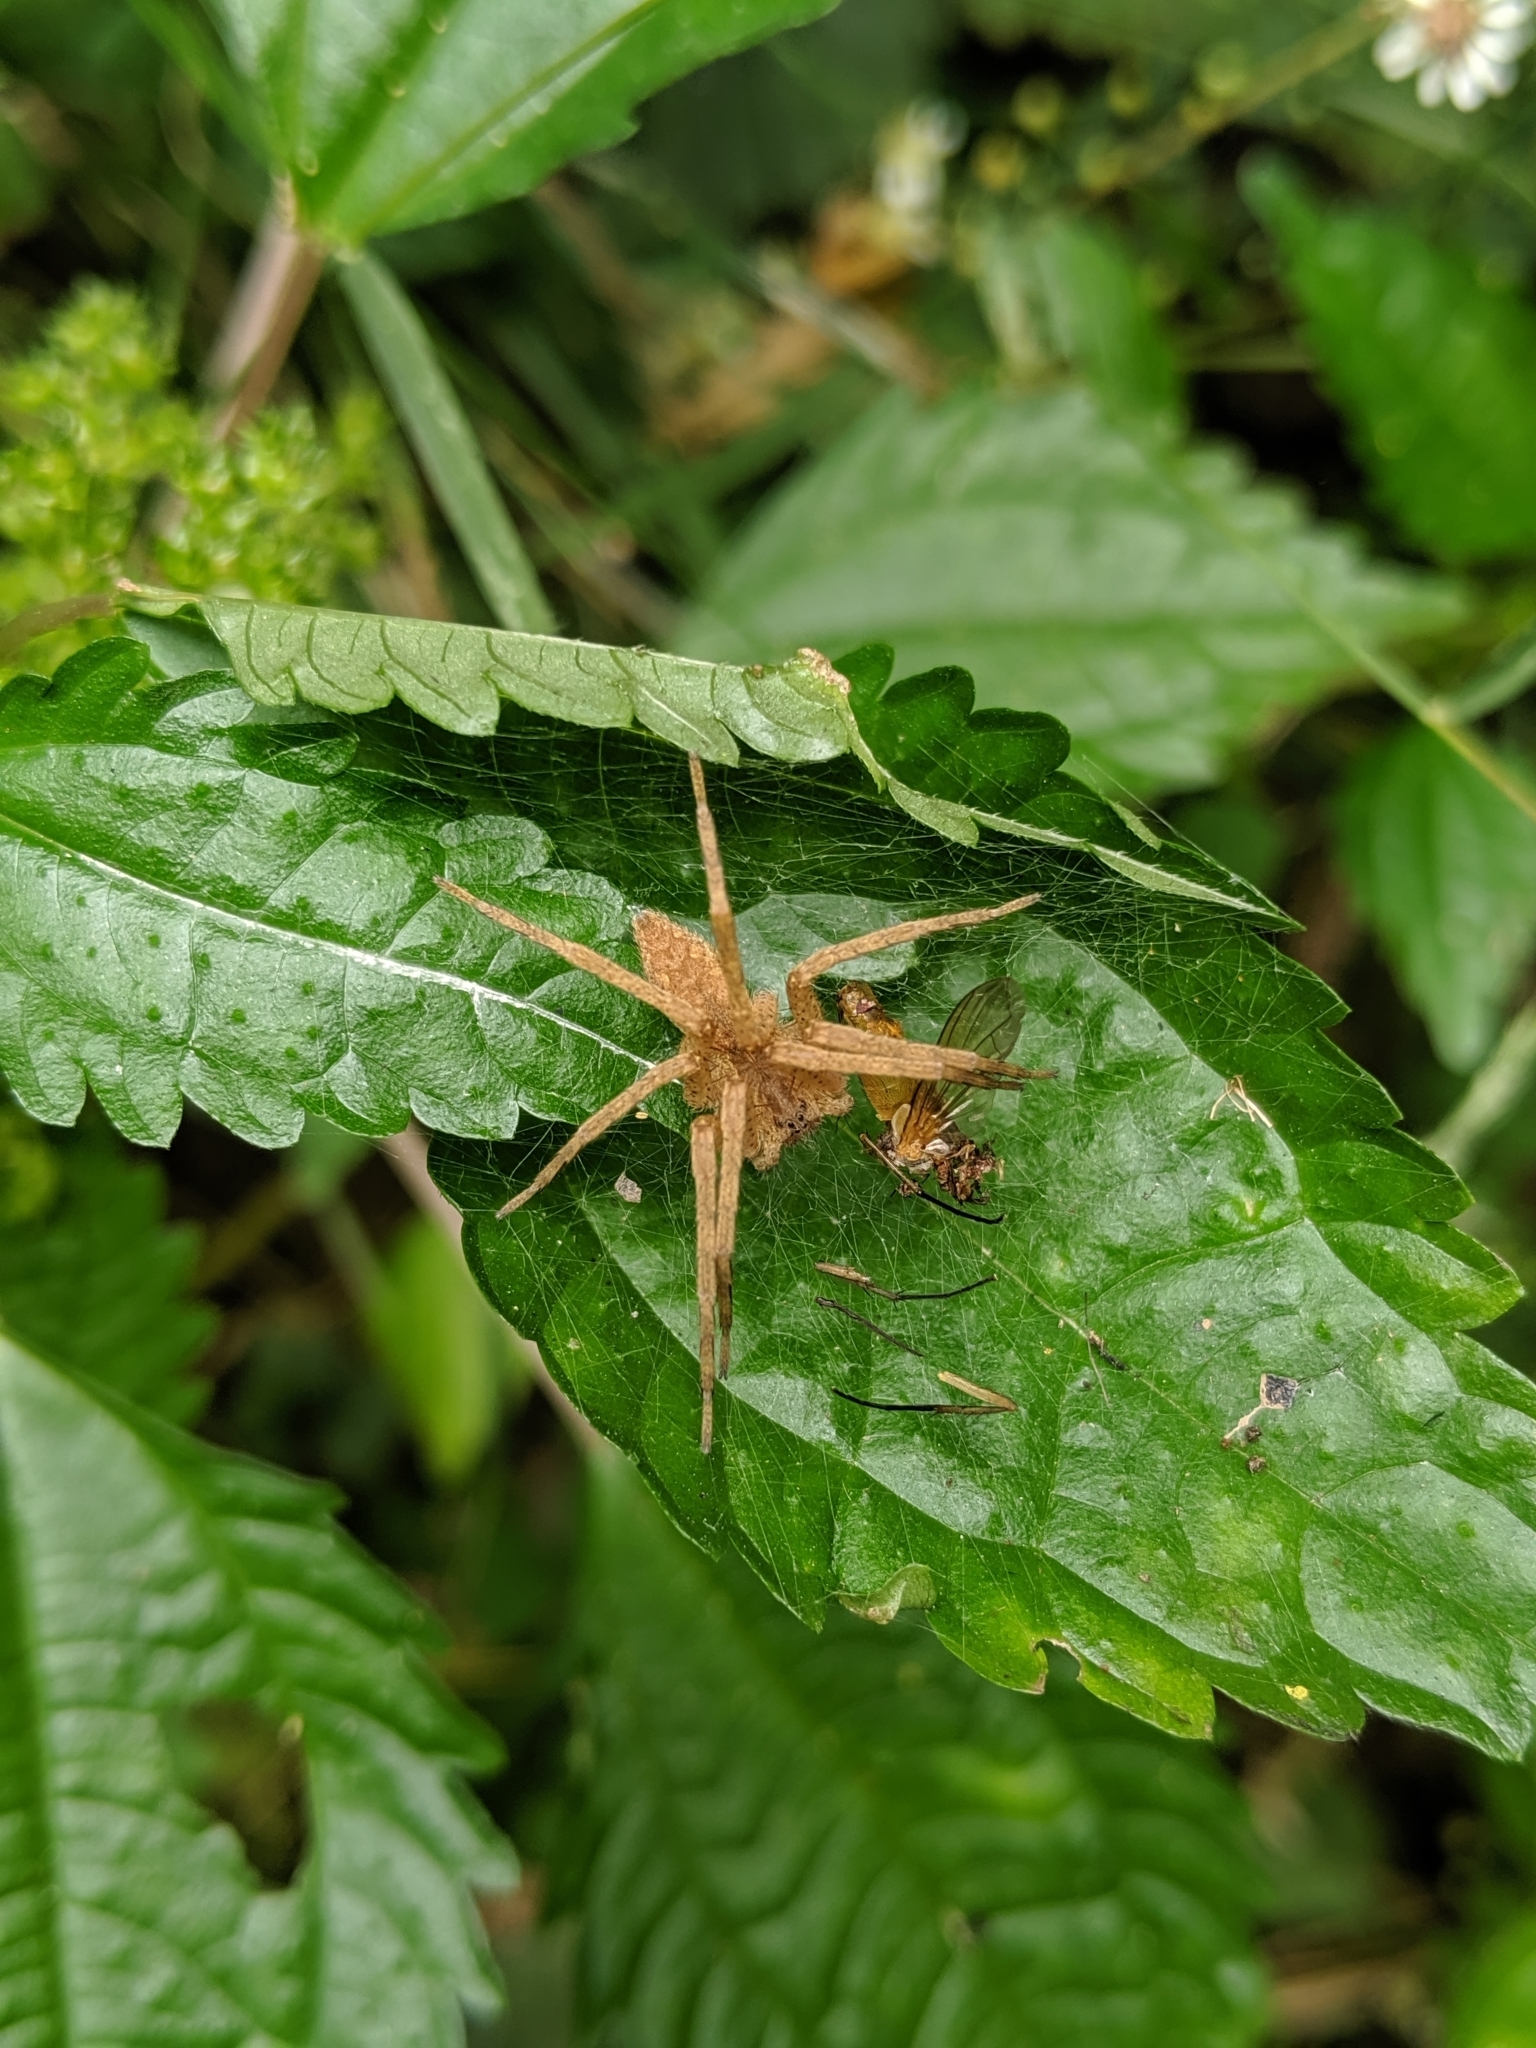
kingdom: Animalia
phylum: Arthropoda
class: Arachnida
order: Araneae
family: Pisauridae
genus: Pisaurina
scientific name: Pisaurina mira
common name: American nursery web spider
